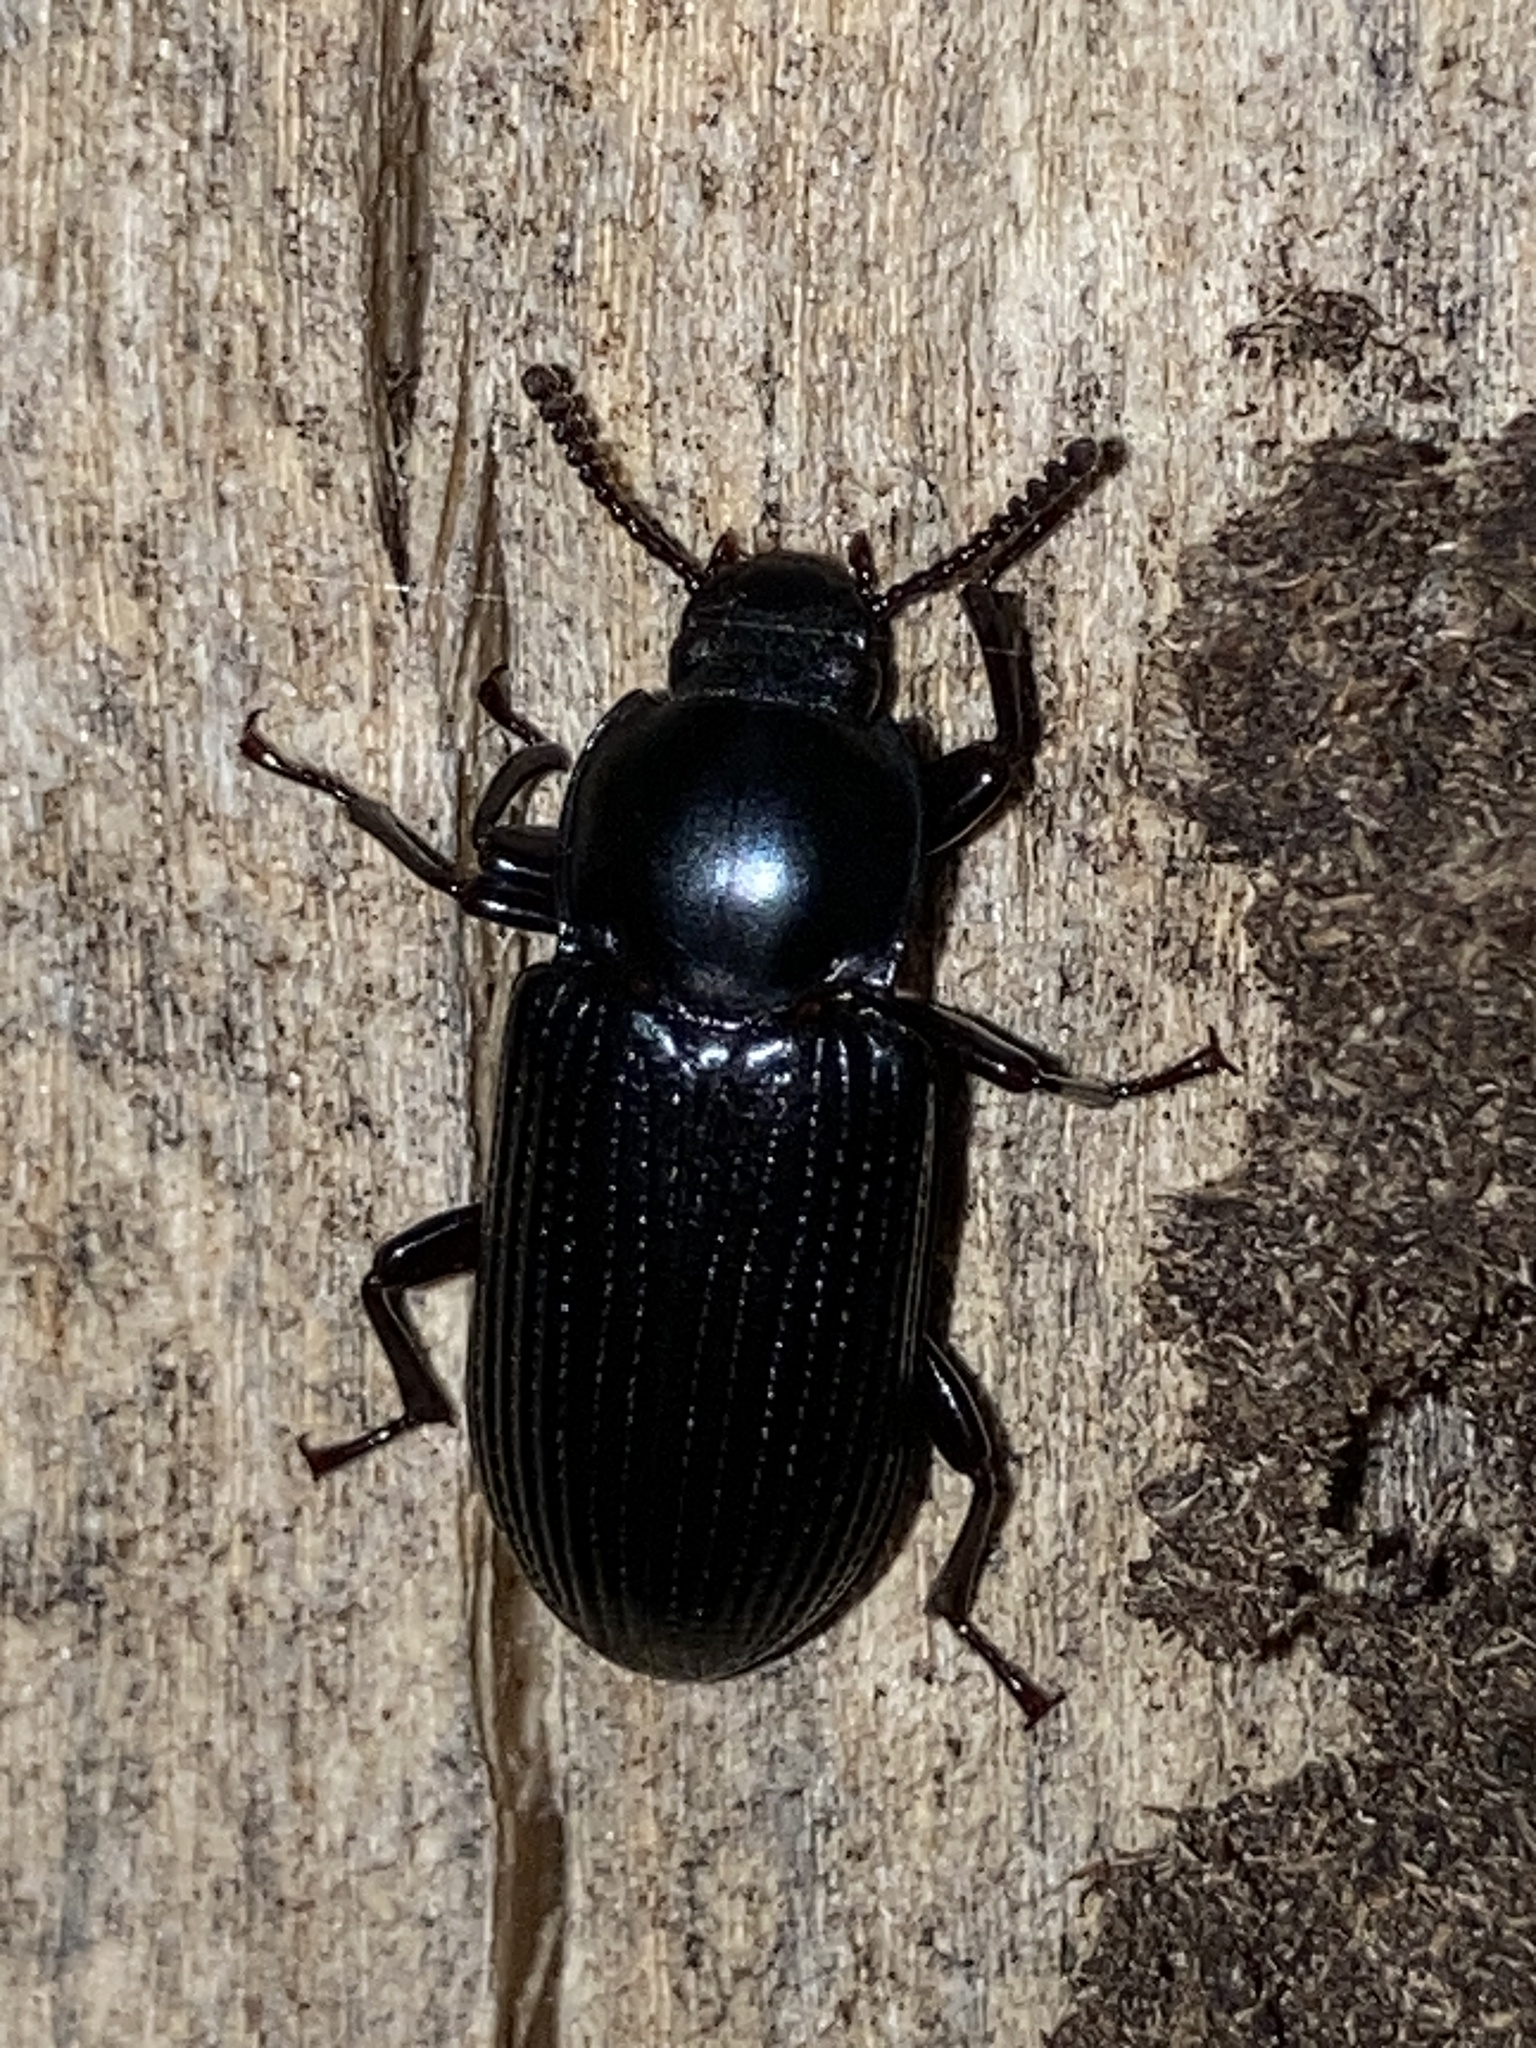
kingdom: Animalia
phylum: Arthropoda
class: Insecta
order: Coleoptera
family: Tenebrionidae
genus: Meneristes
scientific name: Meneristes australis
